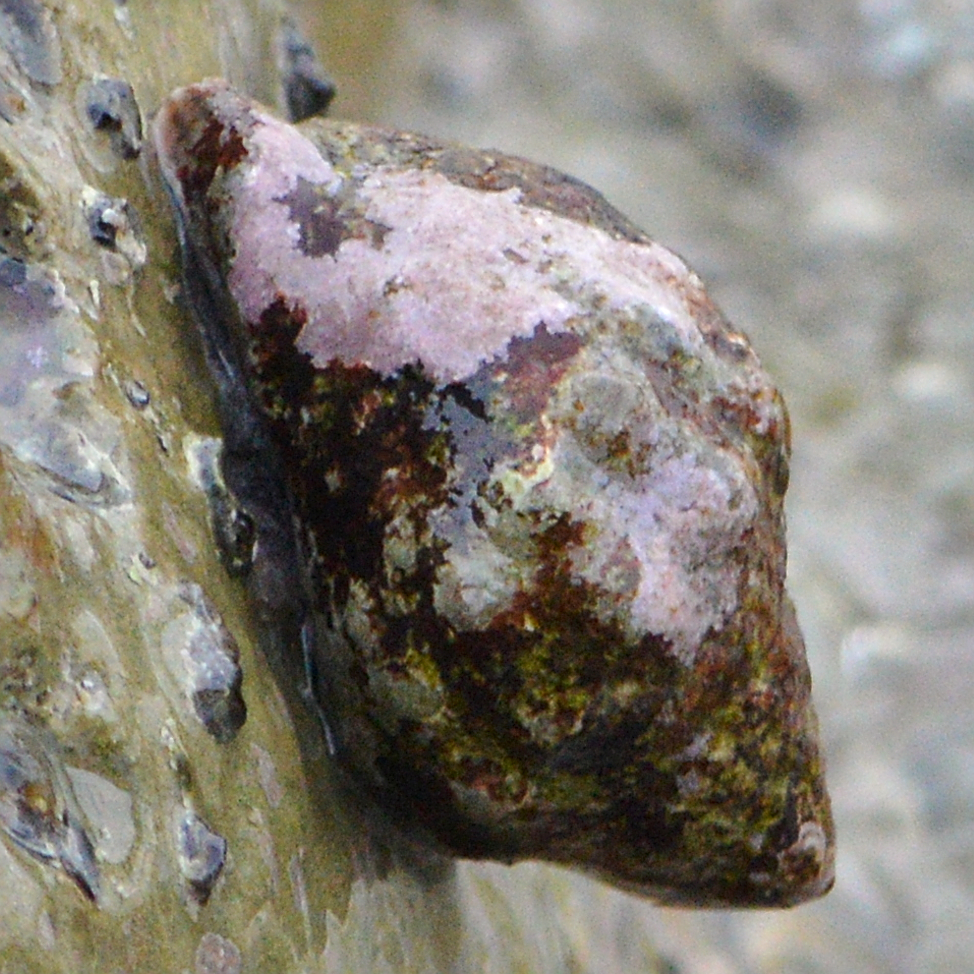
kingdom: Animalia
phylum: Mollusca
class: Gastropoda
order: Neogastropoda
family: Muricidae
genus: Stramonita
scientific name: Stramonita haemastoma
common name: Florida dog winkle
